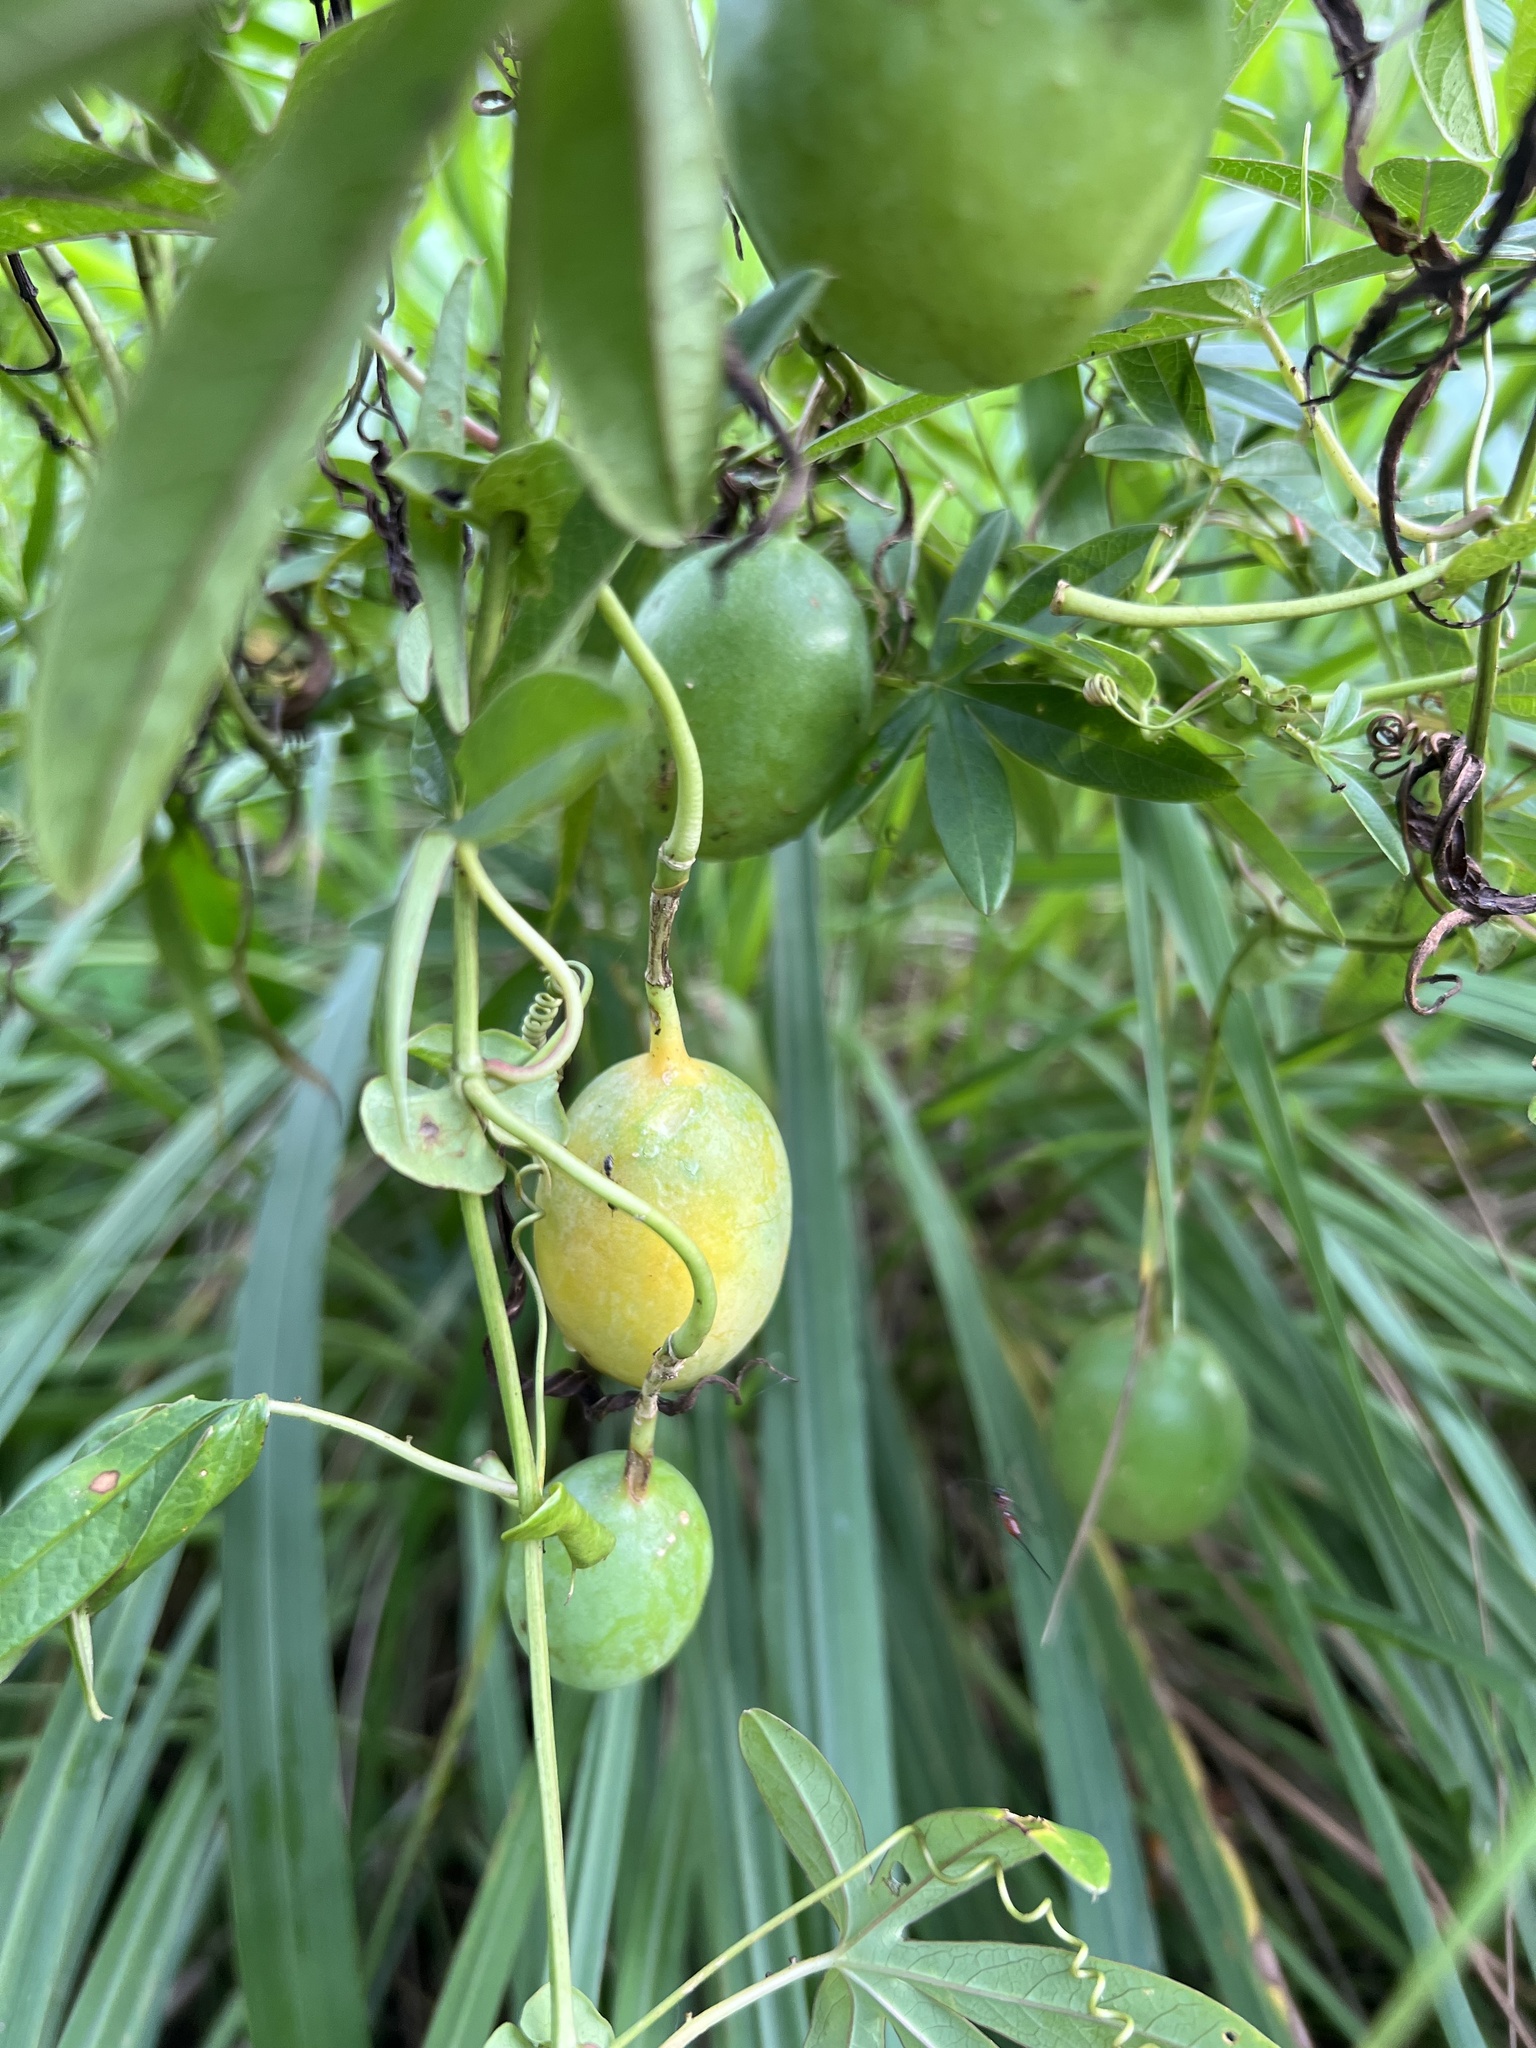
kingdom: Plantae
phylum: Tracheophyta
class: Magnoliopsida
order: Malpighiales
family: Passifloraceae
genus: Passiflora
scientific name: Passiflora caerulea
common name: Blue passionflower
